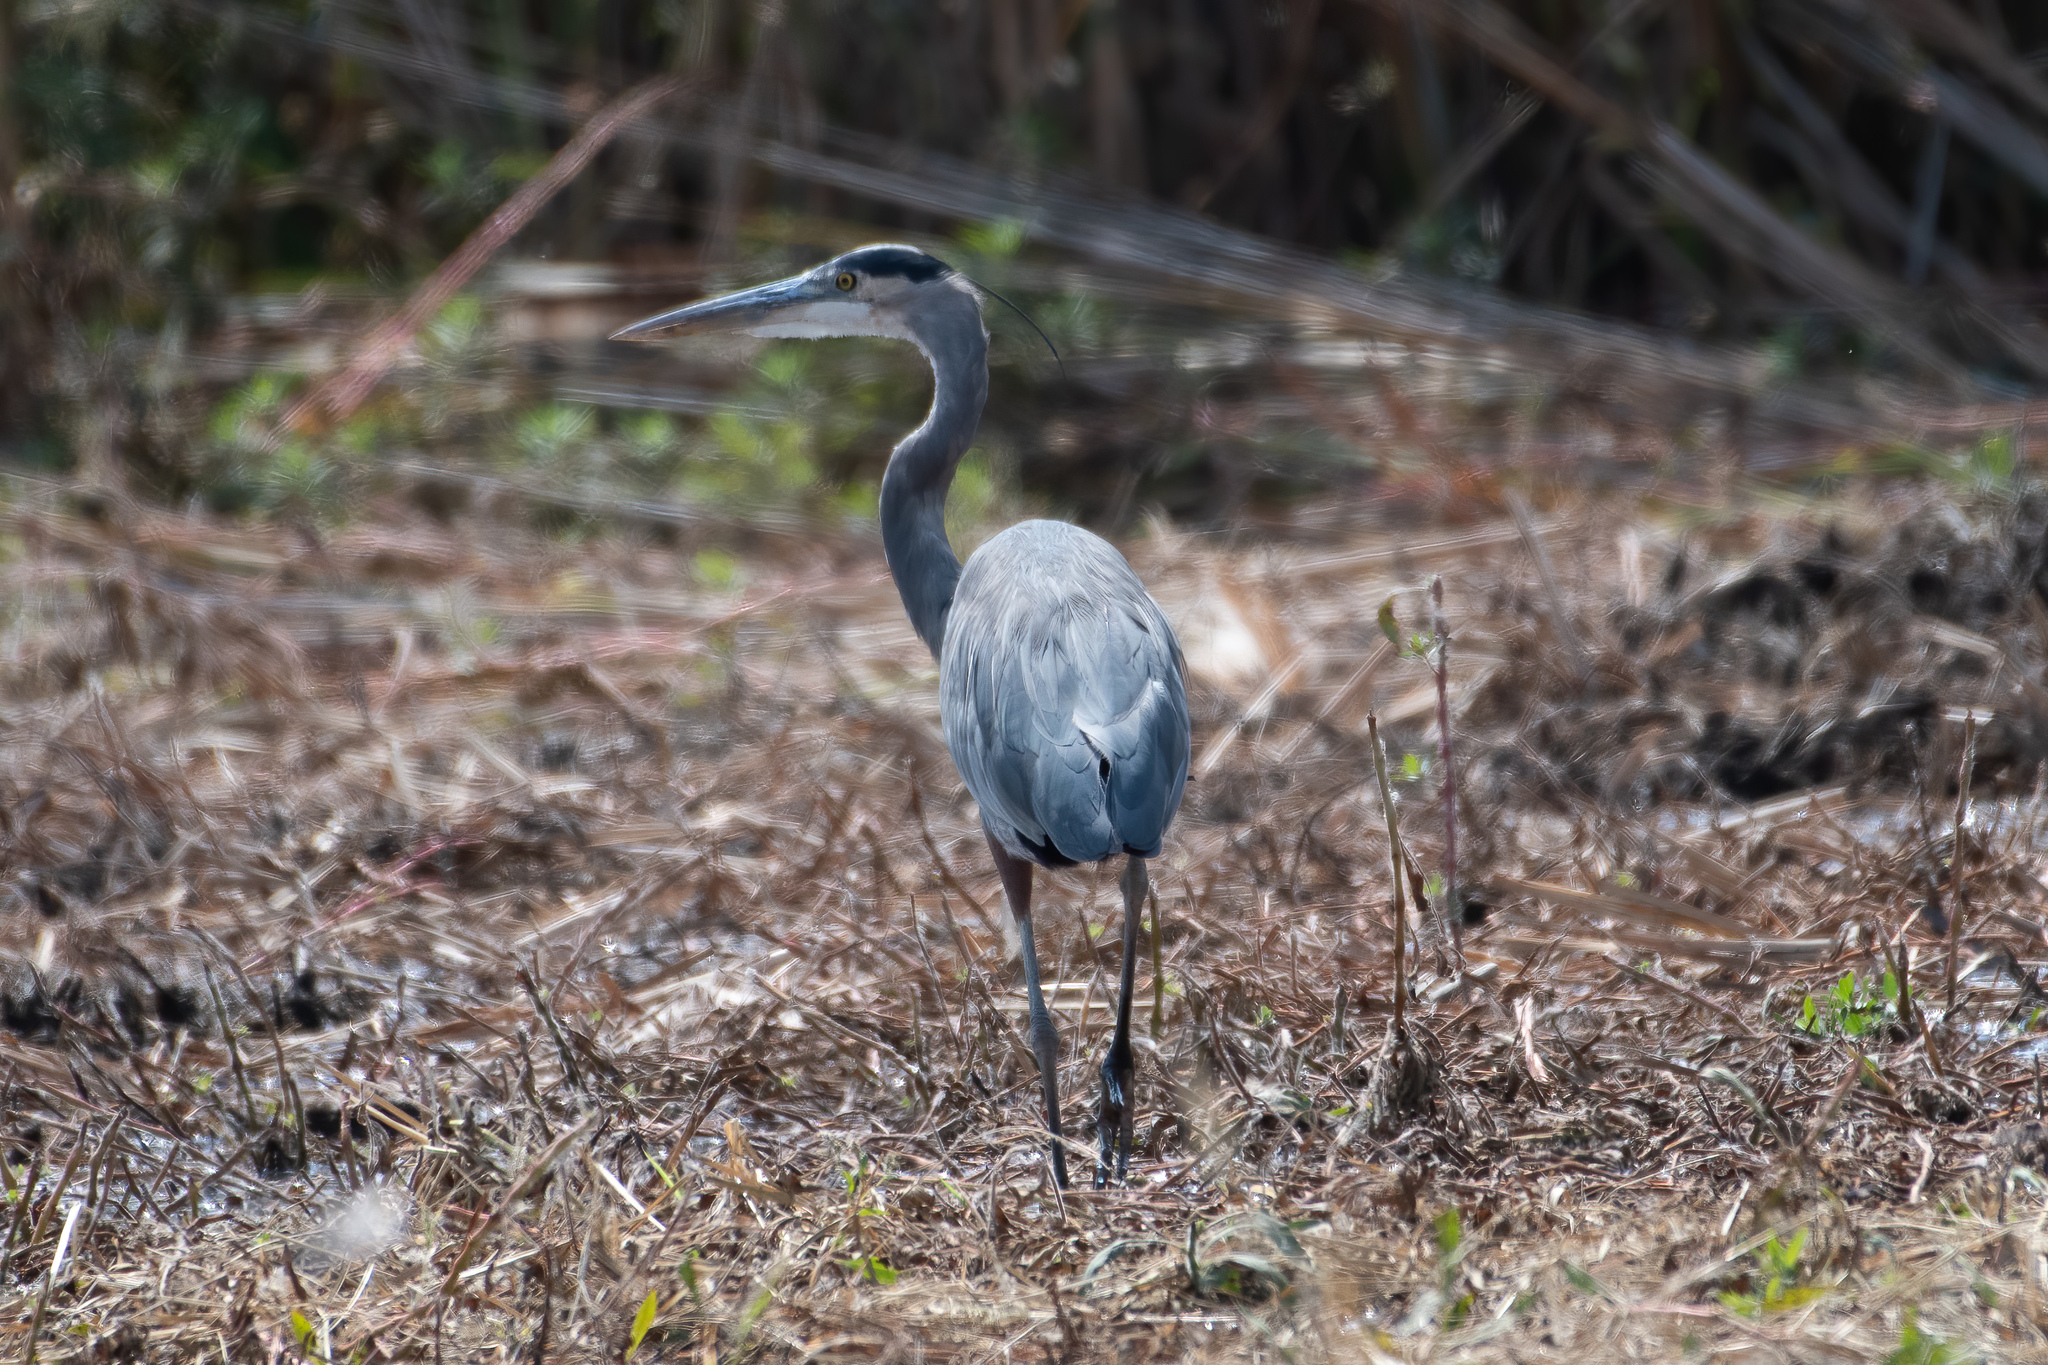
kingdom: Animalia
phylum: Chordata
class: Aves
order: Pelecaniformes
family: Ardeidae
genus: Ardea
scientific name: Ardea herodias
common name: Great blue heron
